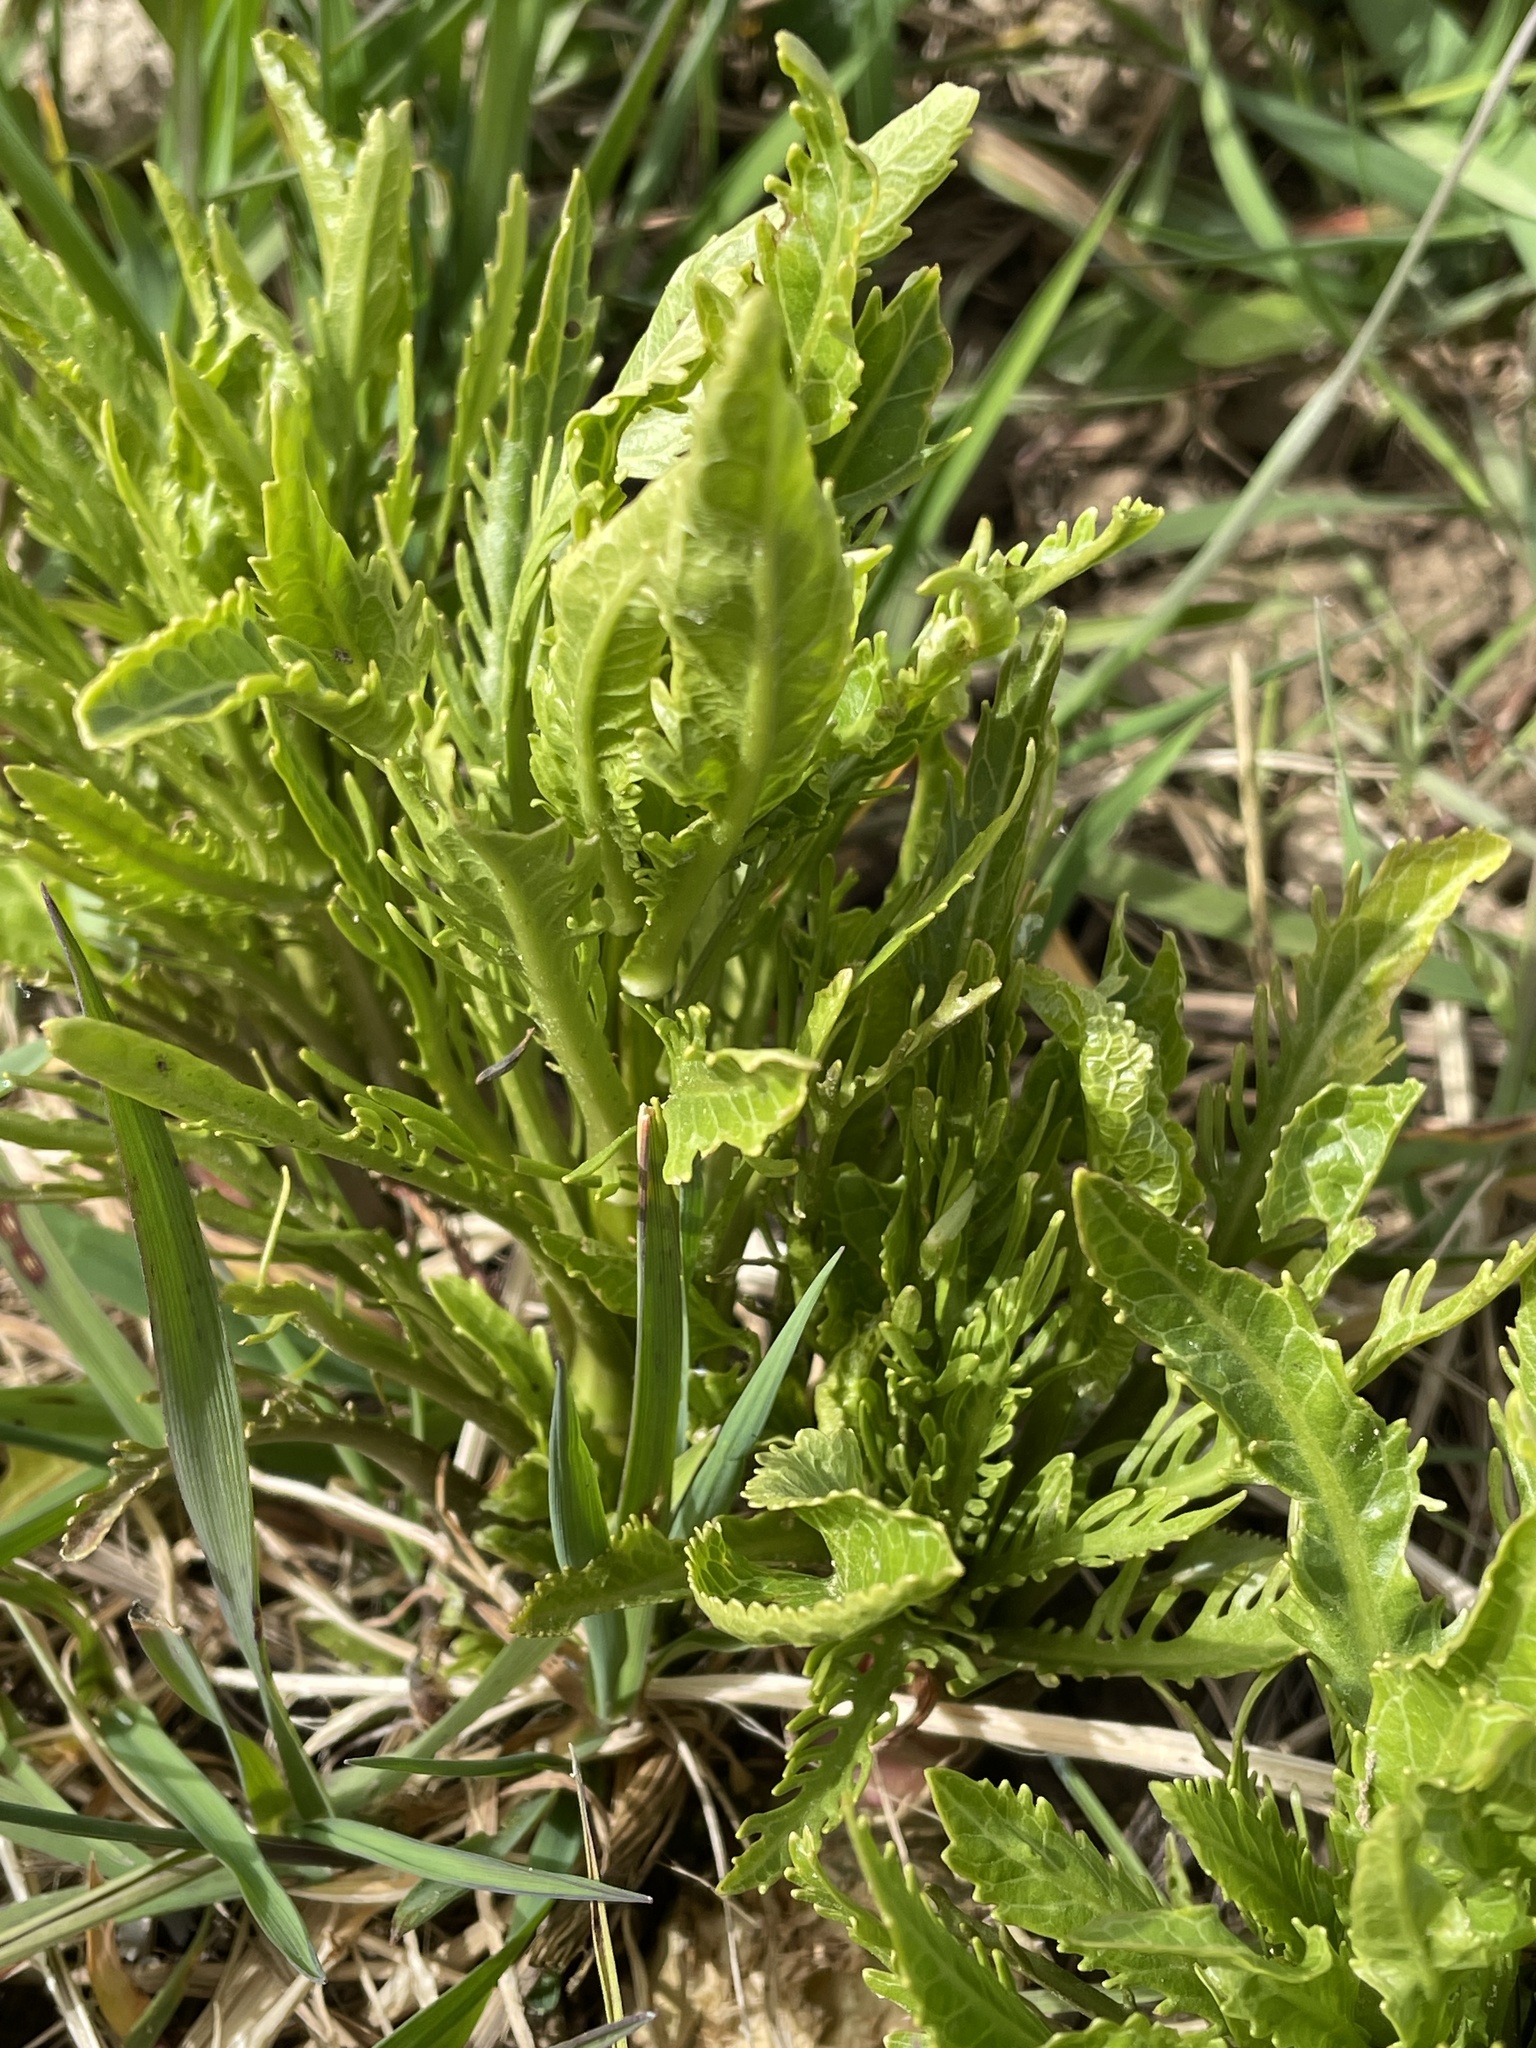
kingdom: Plantae
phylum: Tracheophyta
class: Magnoliopsida
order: Brassicales
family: Brassicaceae
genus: Armoracia
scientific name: Armoracia rusticana
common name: Horseradish
